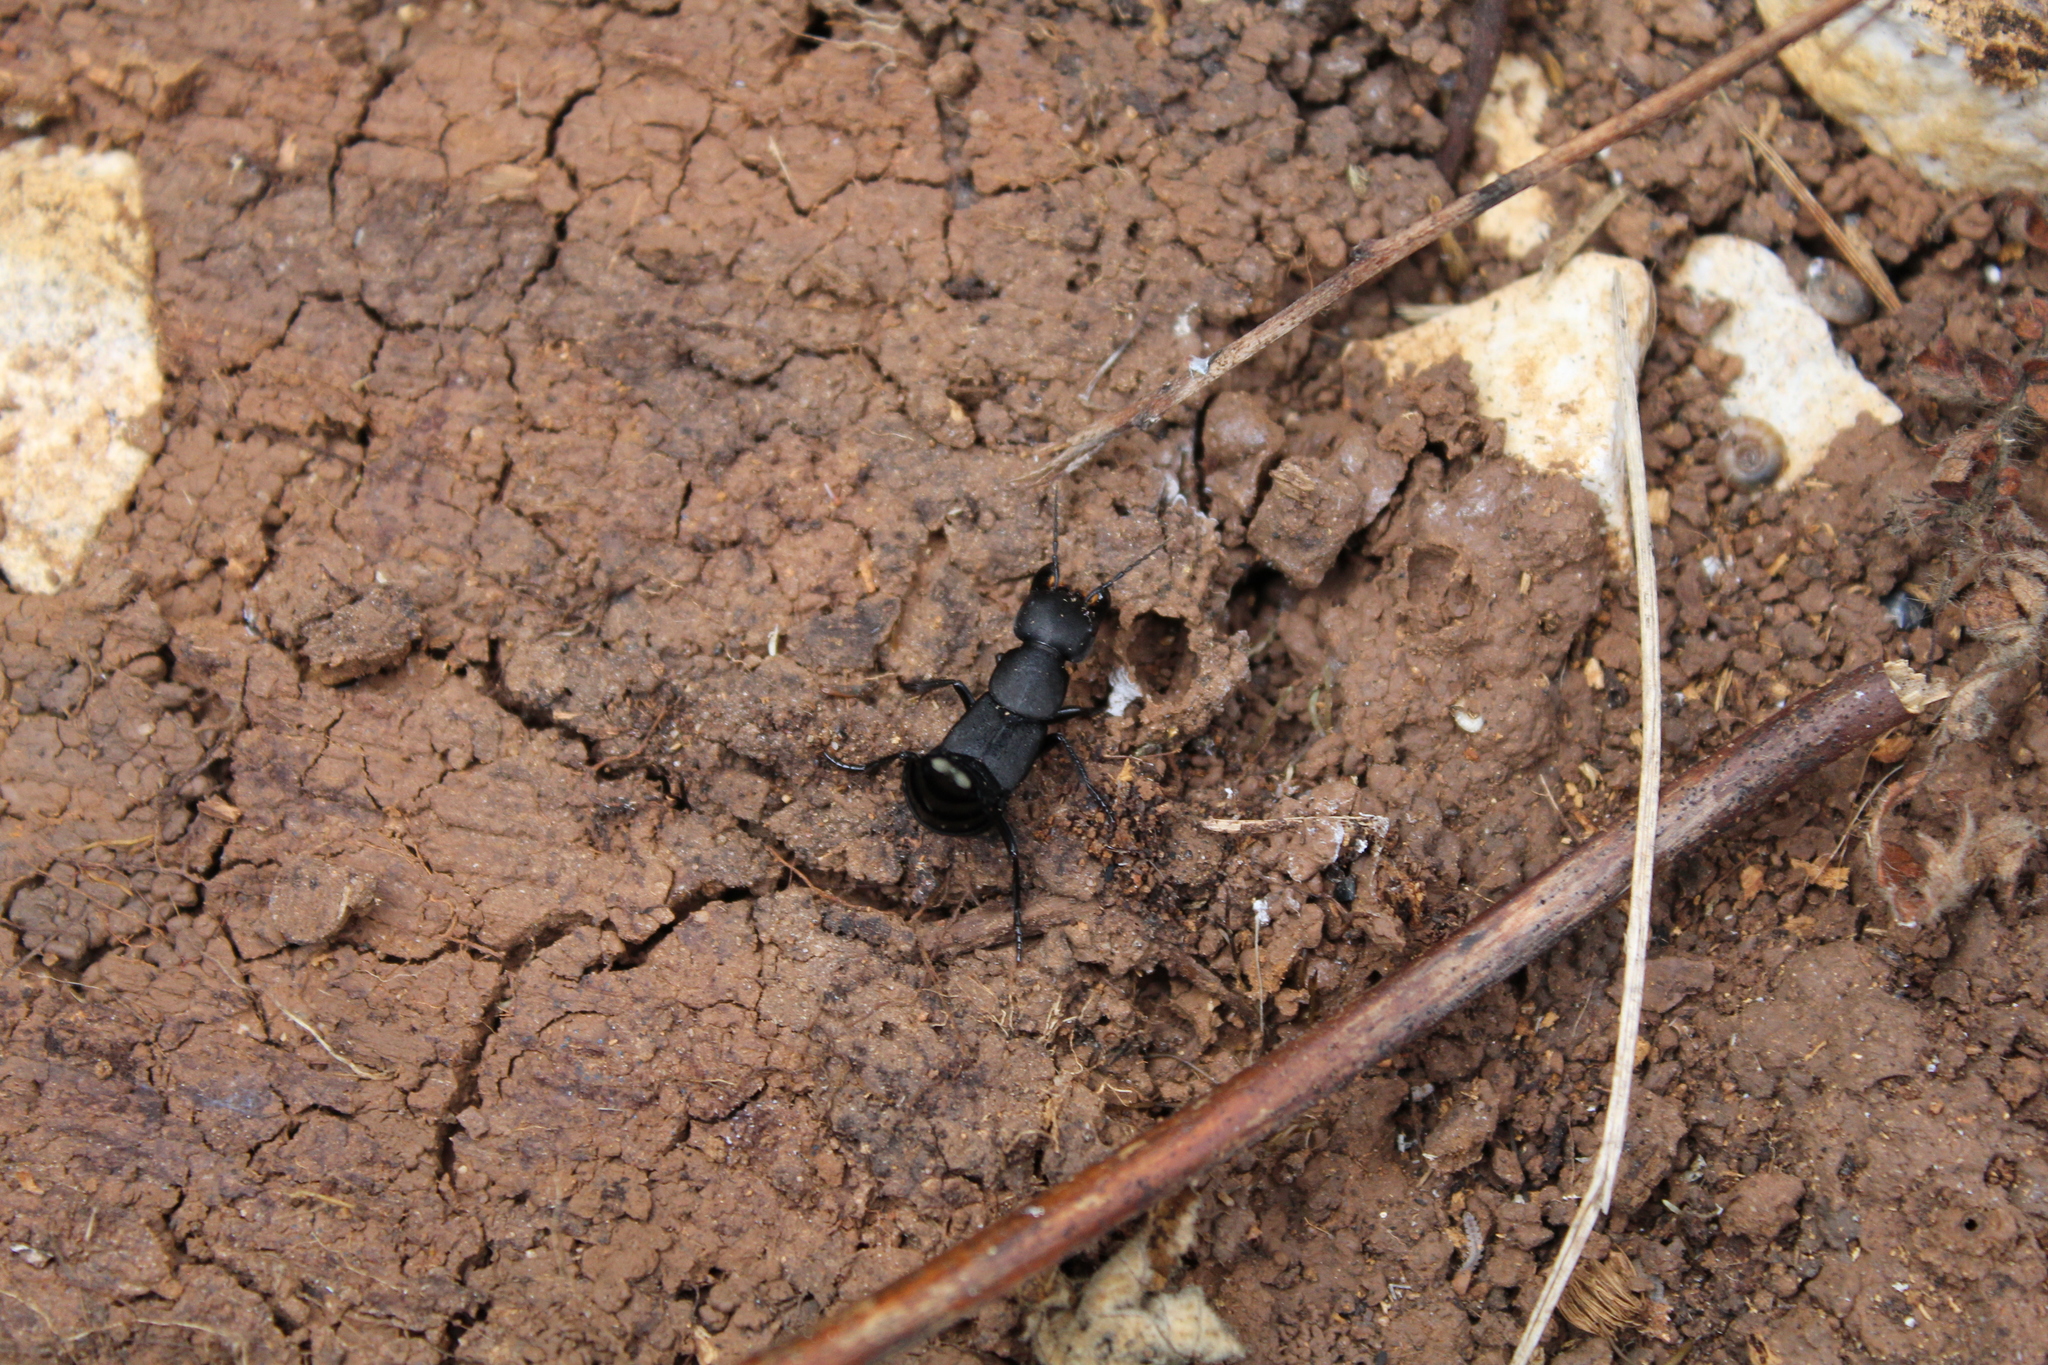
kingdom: Animalia
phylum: Arthropoda
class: Insecta
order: Coleoptera
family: Staphylinidae
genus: Ocypus
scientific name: Ocypus olens
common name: Devil's coach-horse
